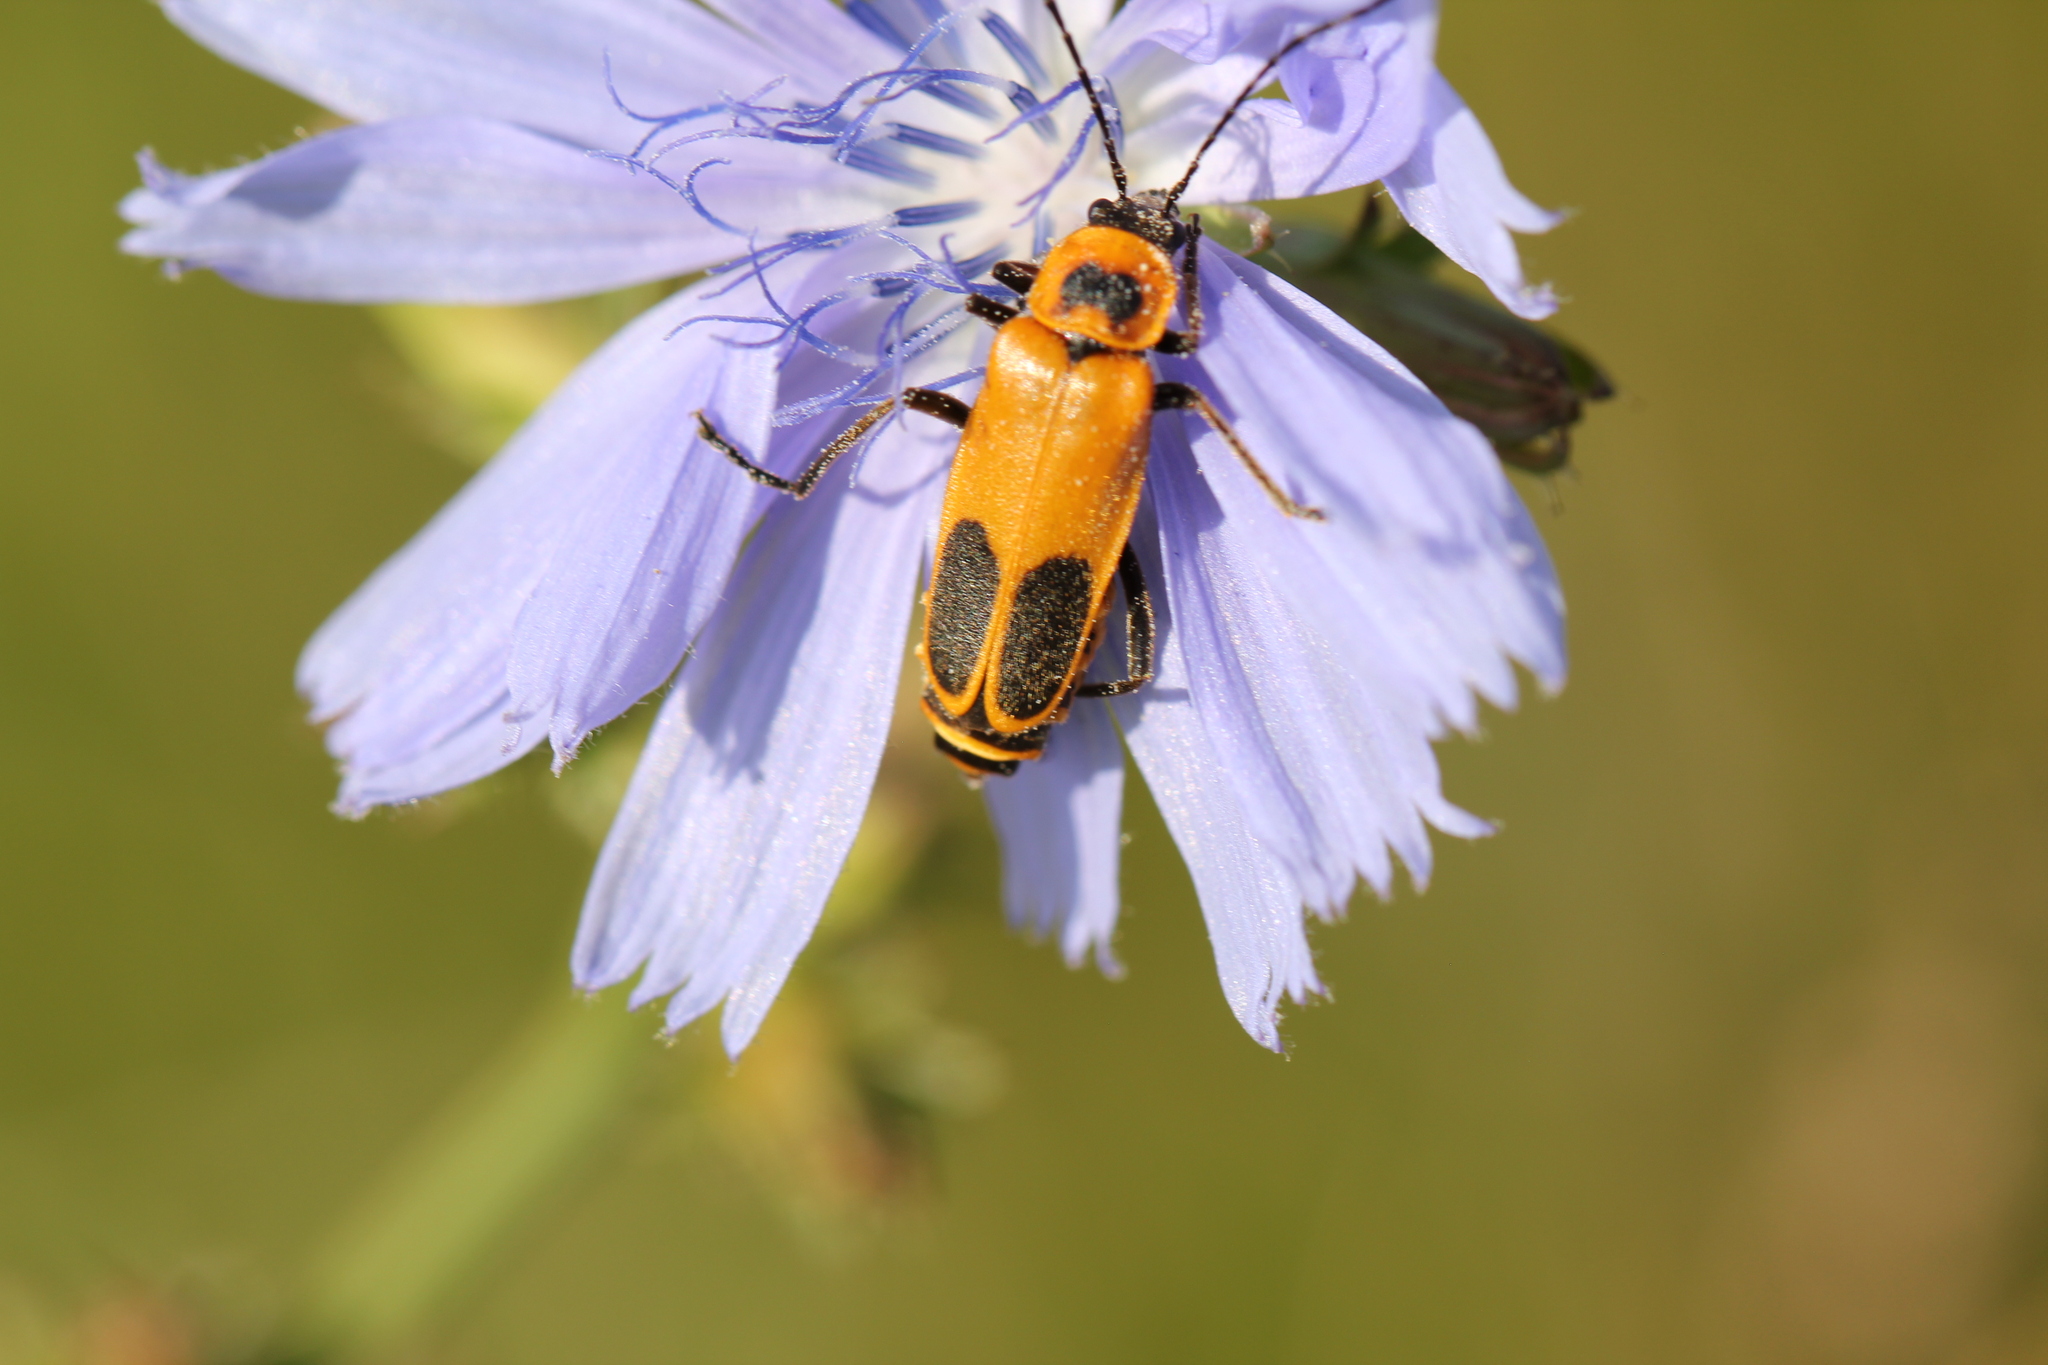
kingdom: Animalia
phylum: Arthropoda
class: Insecta
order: Coleoptera
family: Cantharidae
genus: Chauliognathus
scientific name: Chauliognathus pensylvanicus
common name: Goldenrod soldier beetle
